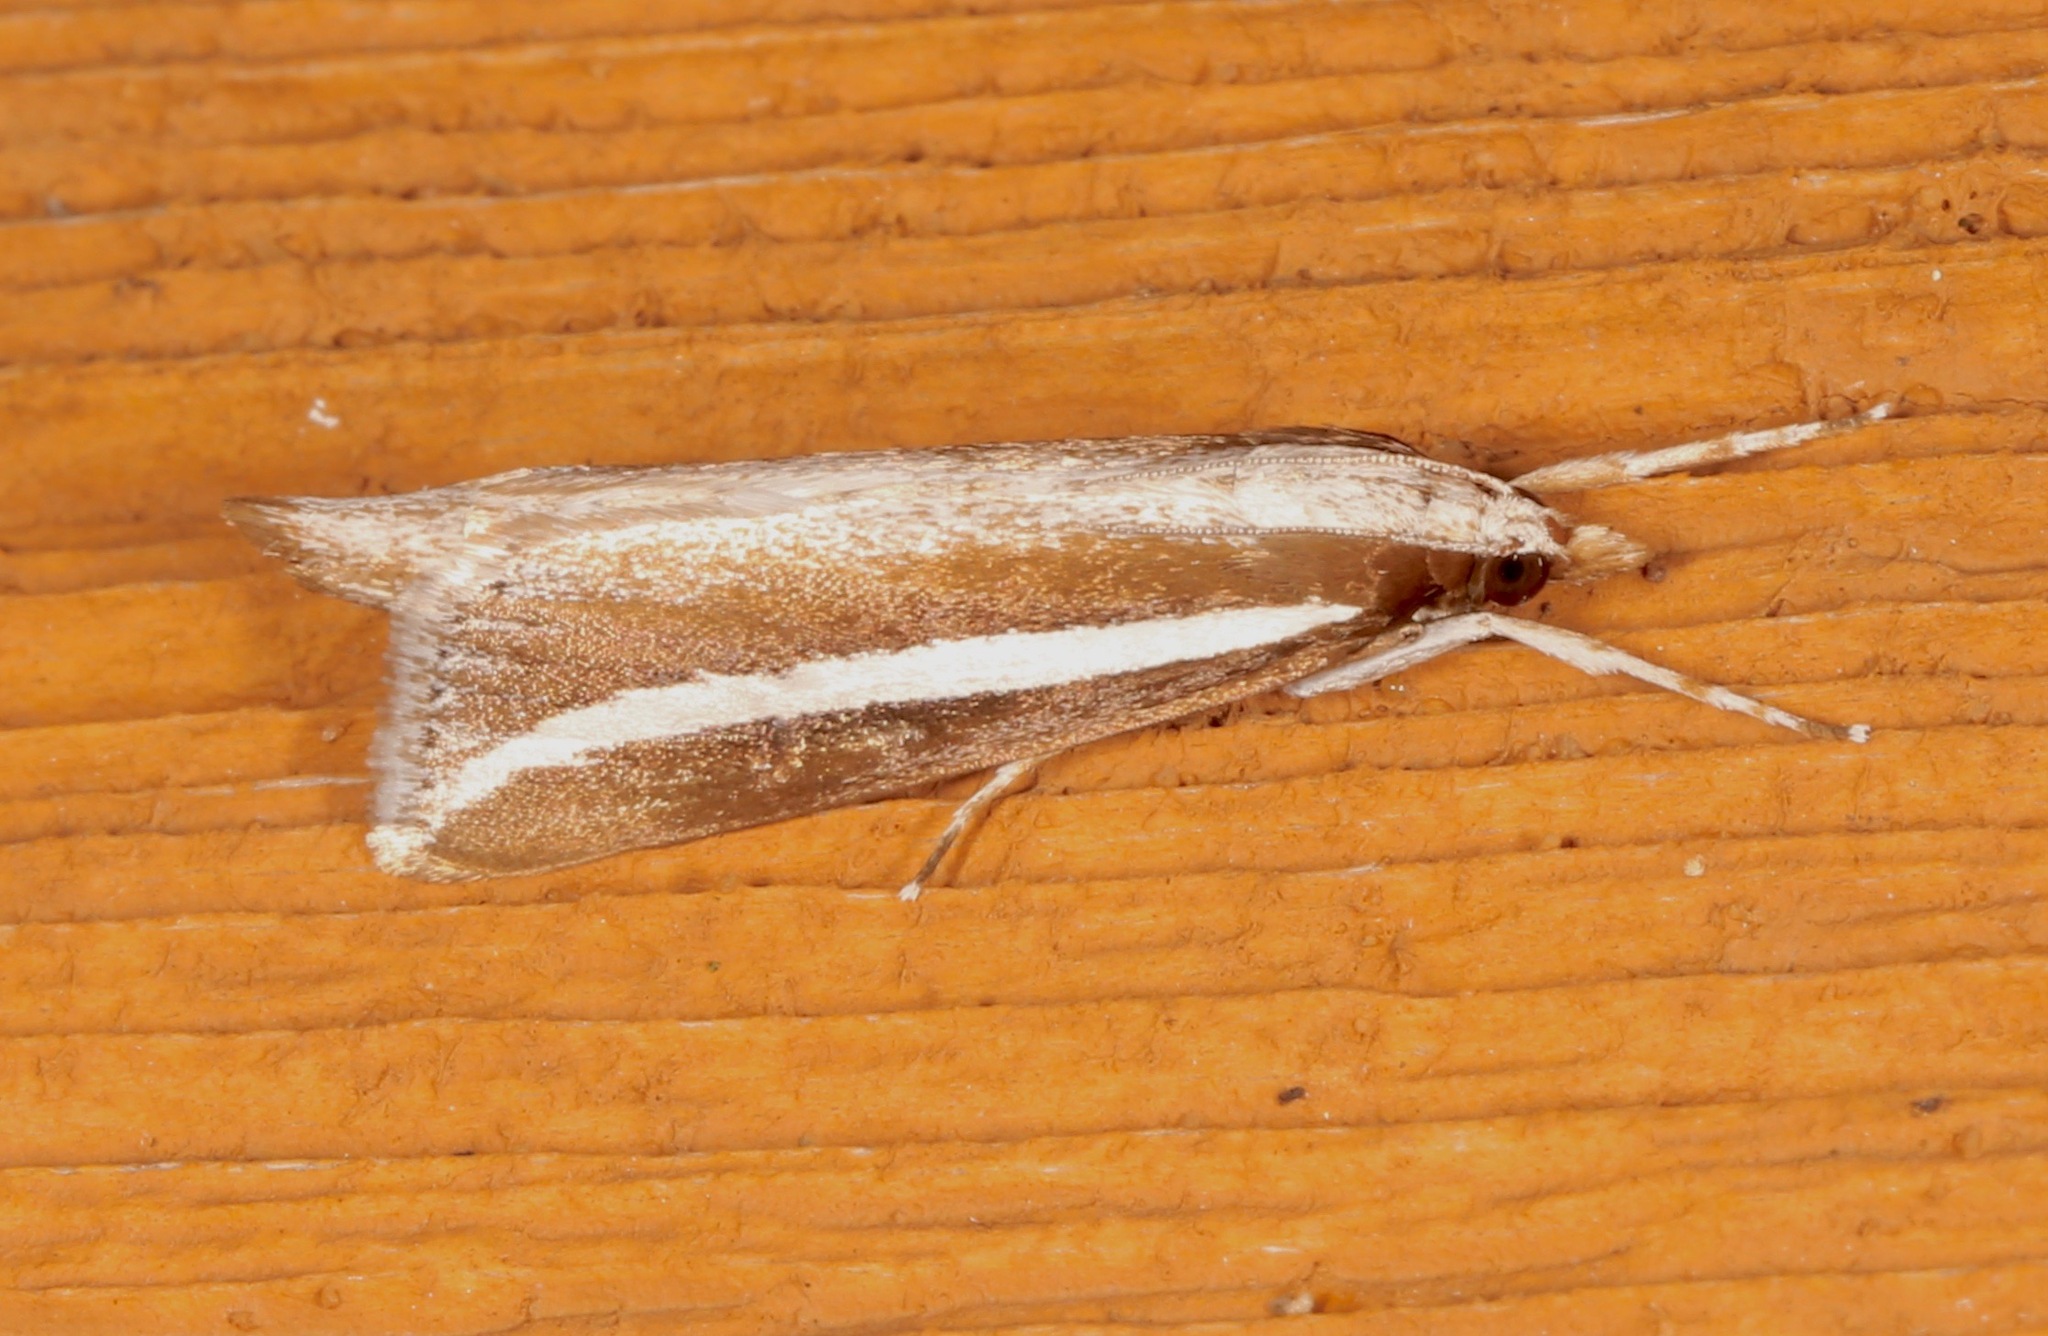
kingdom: Animalia
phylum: Arthropoda
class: Insecta
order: Lepidoptera
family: Crambidae
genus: Carectocultus
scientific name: Carectocultus perstrialis
